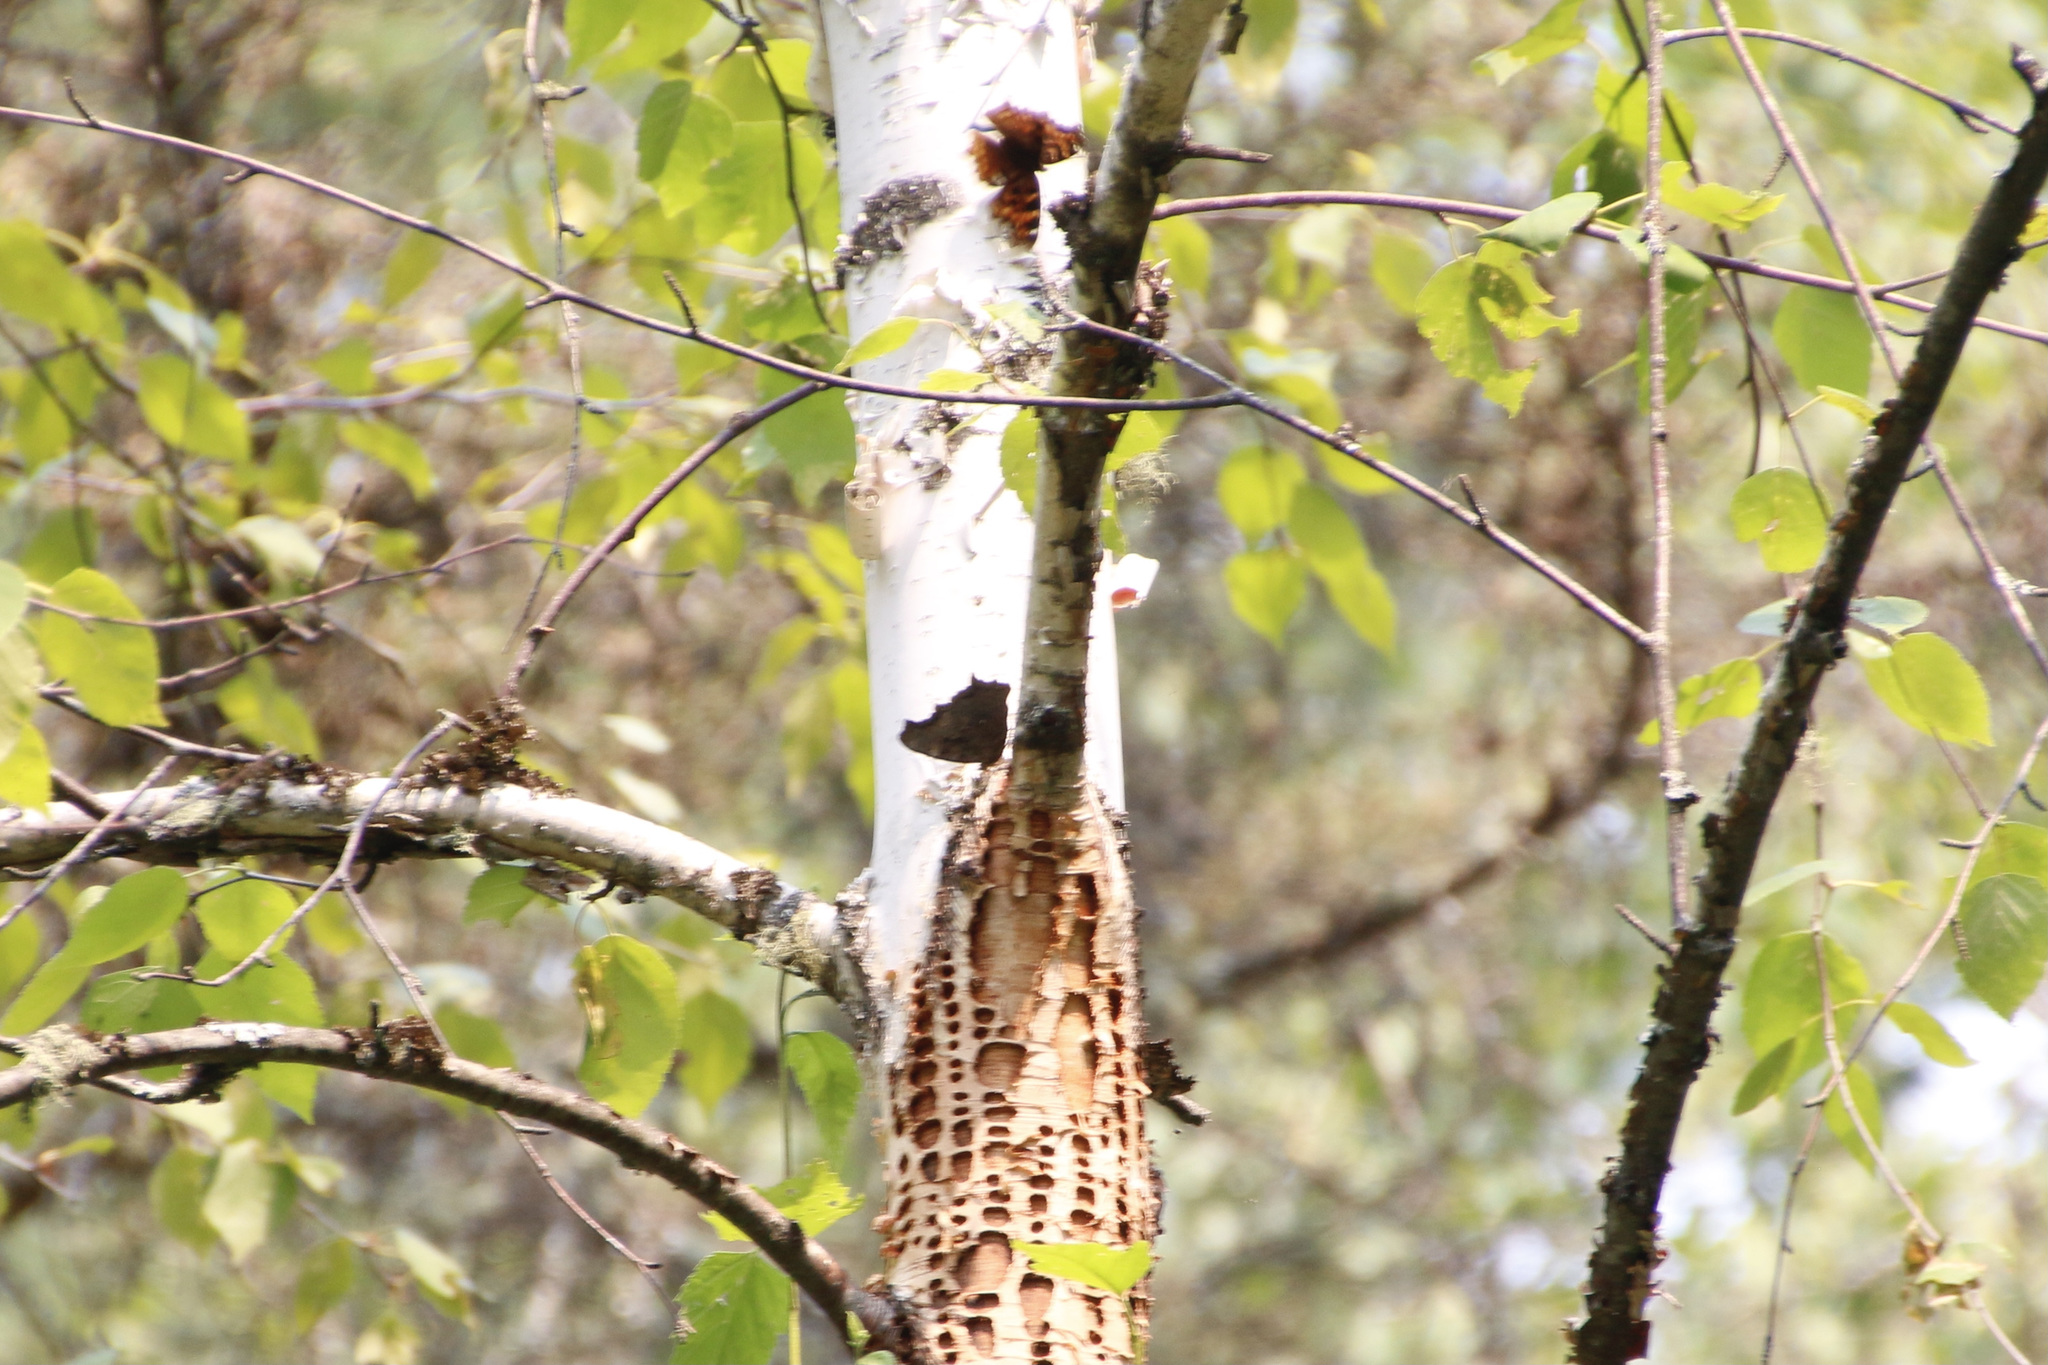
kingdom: Animalia
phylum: Arthropoda
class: Insecta
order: Lepidoptera
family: Nymphalidae
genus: Polygonia
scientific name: Polygonia vaualbum
